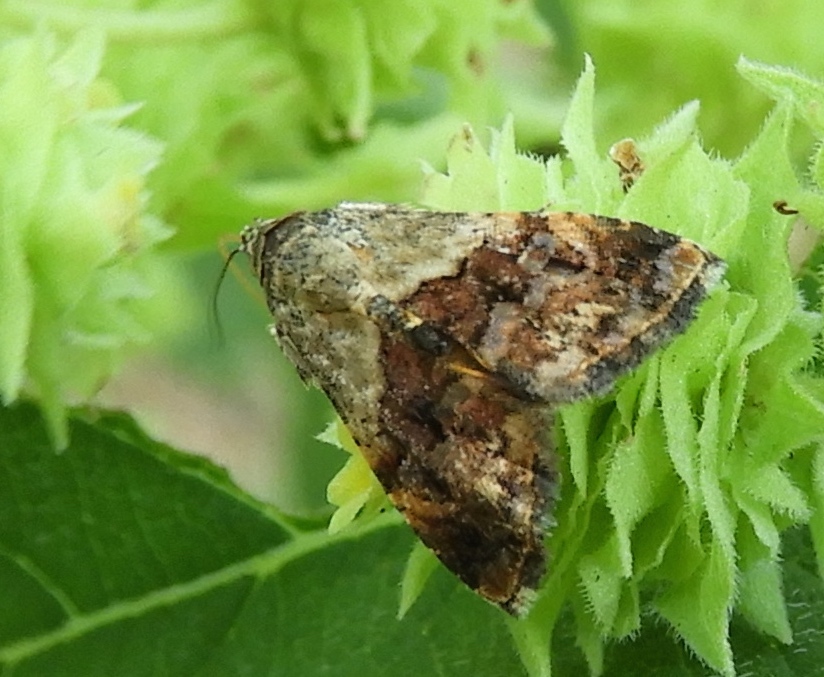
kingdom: Animalia
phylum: Arthropoda
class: Insecta
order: Lepidoptera
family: Noctuidae
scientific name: Noctuidae
